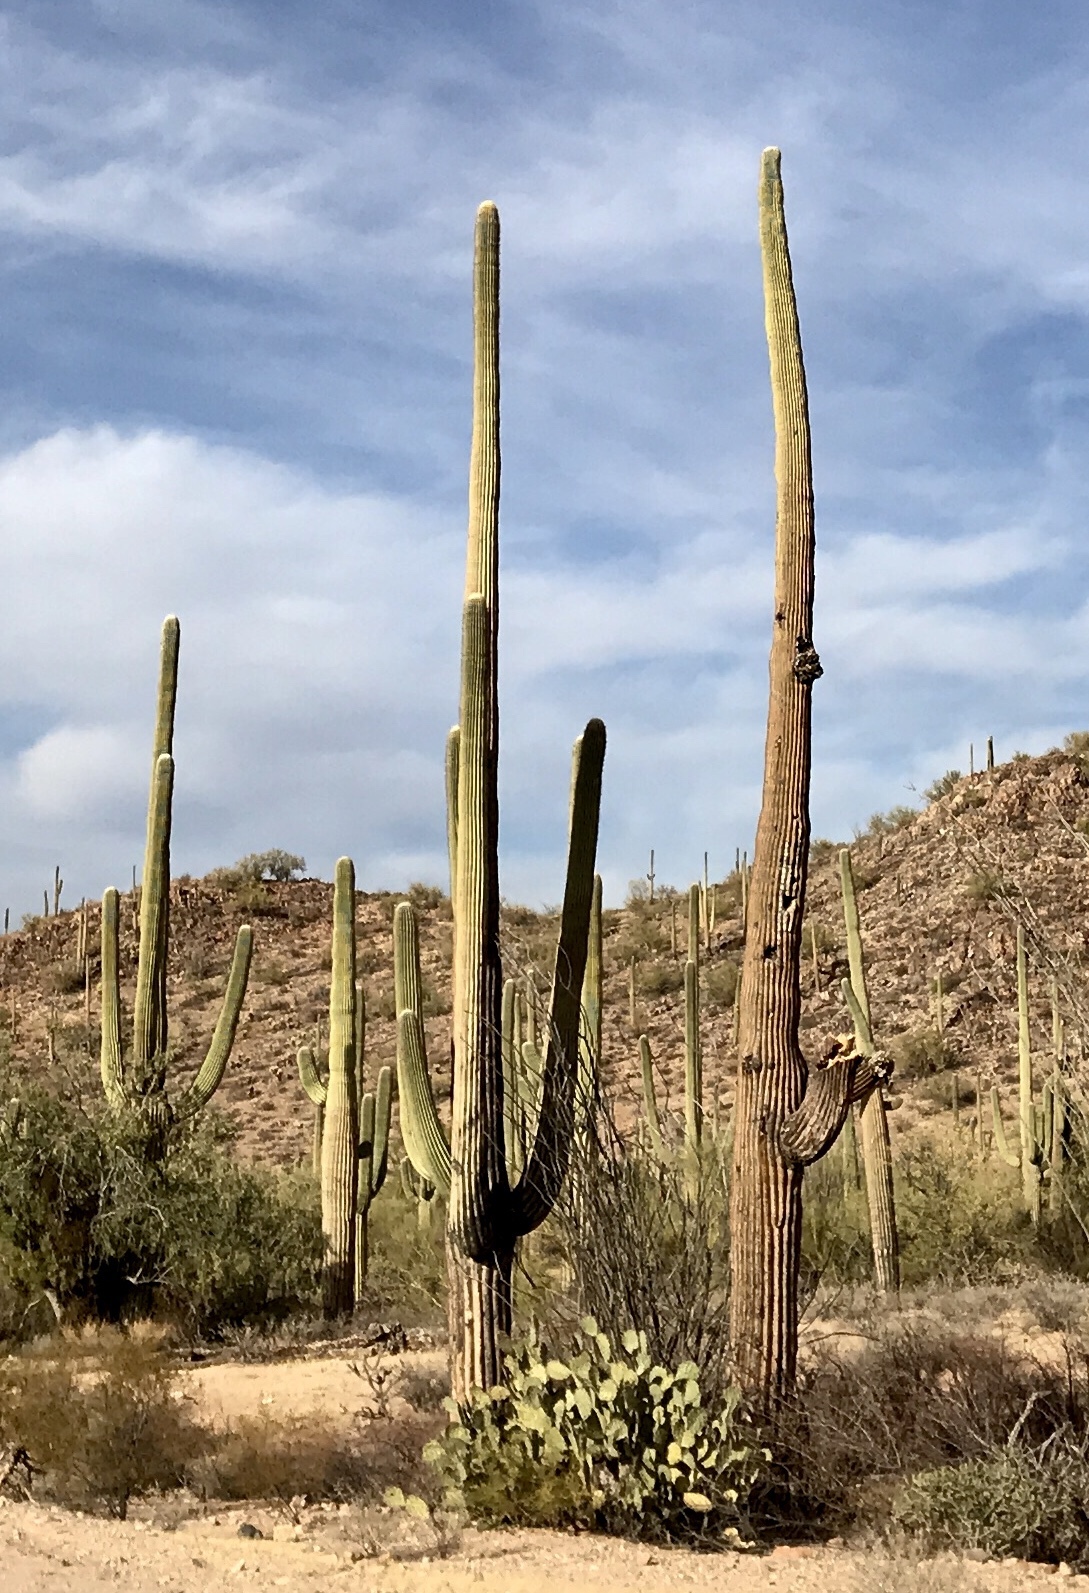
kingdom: Plantae
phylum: Tracheophyta
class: Magnoliopsida
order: Caryophyllales
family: Cactaceae
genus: Carnegiea
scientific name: Carnegiea gigantea
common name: Saguaro
